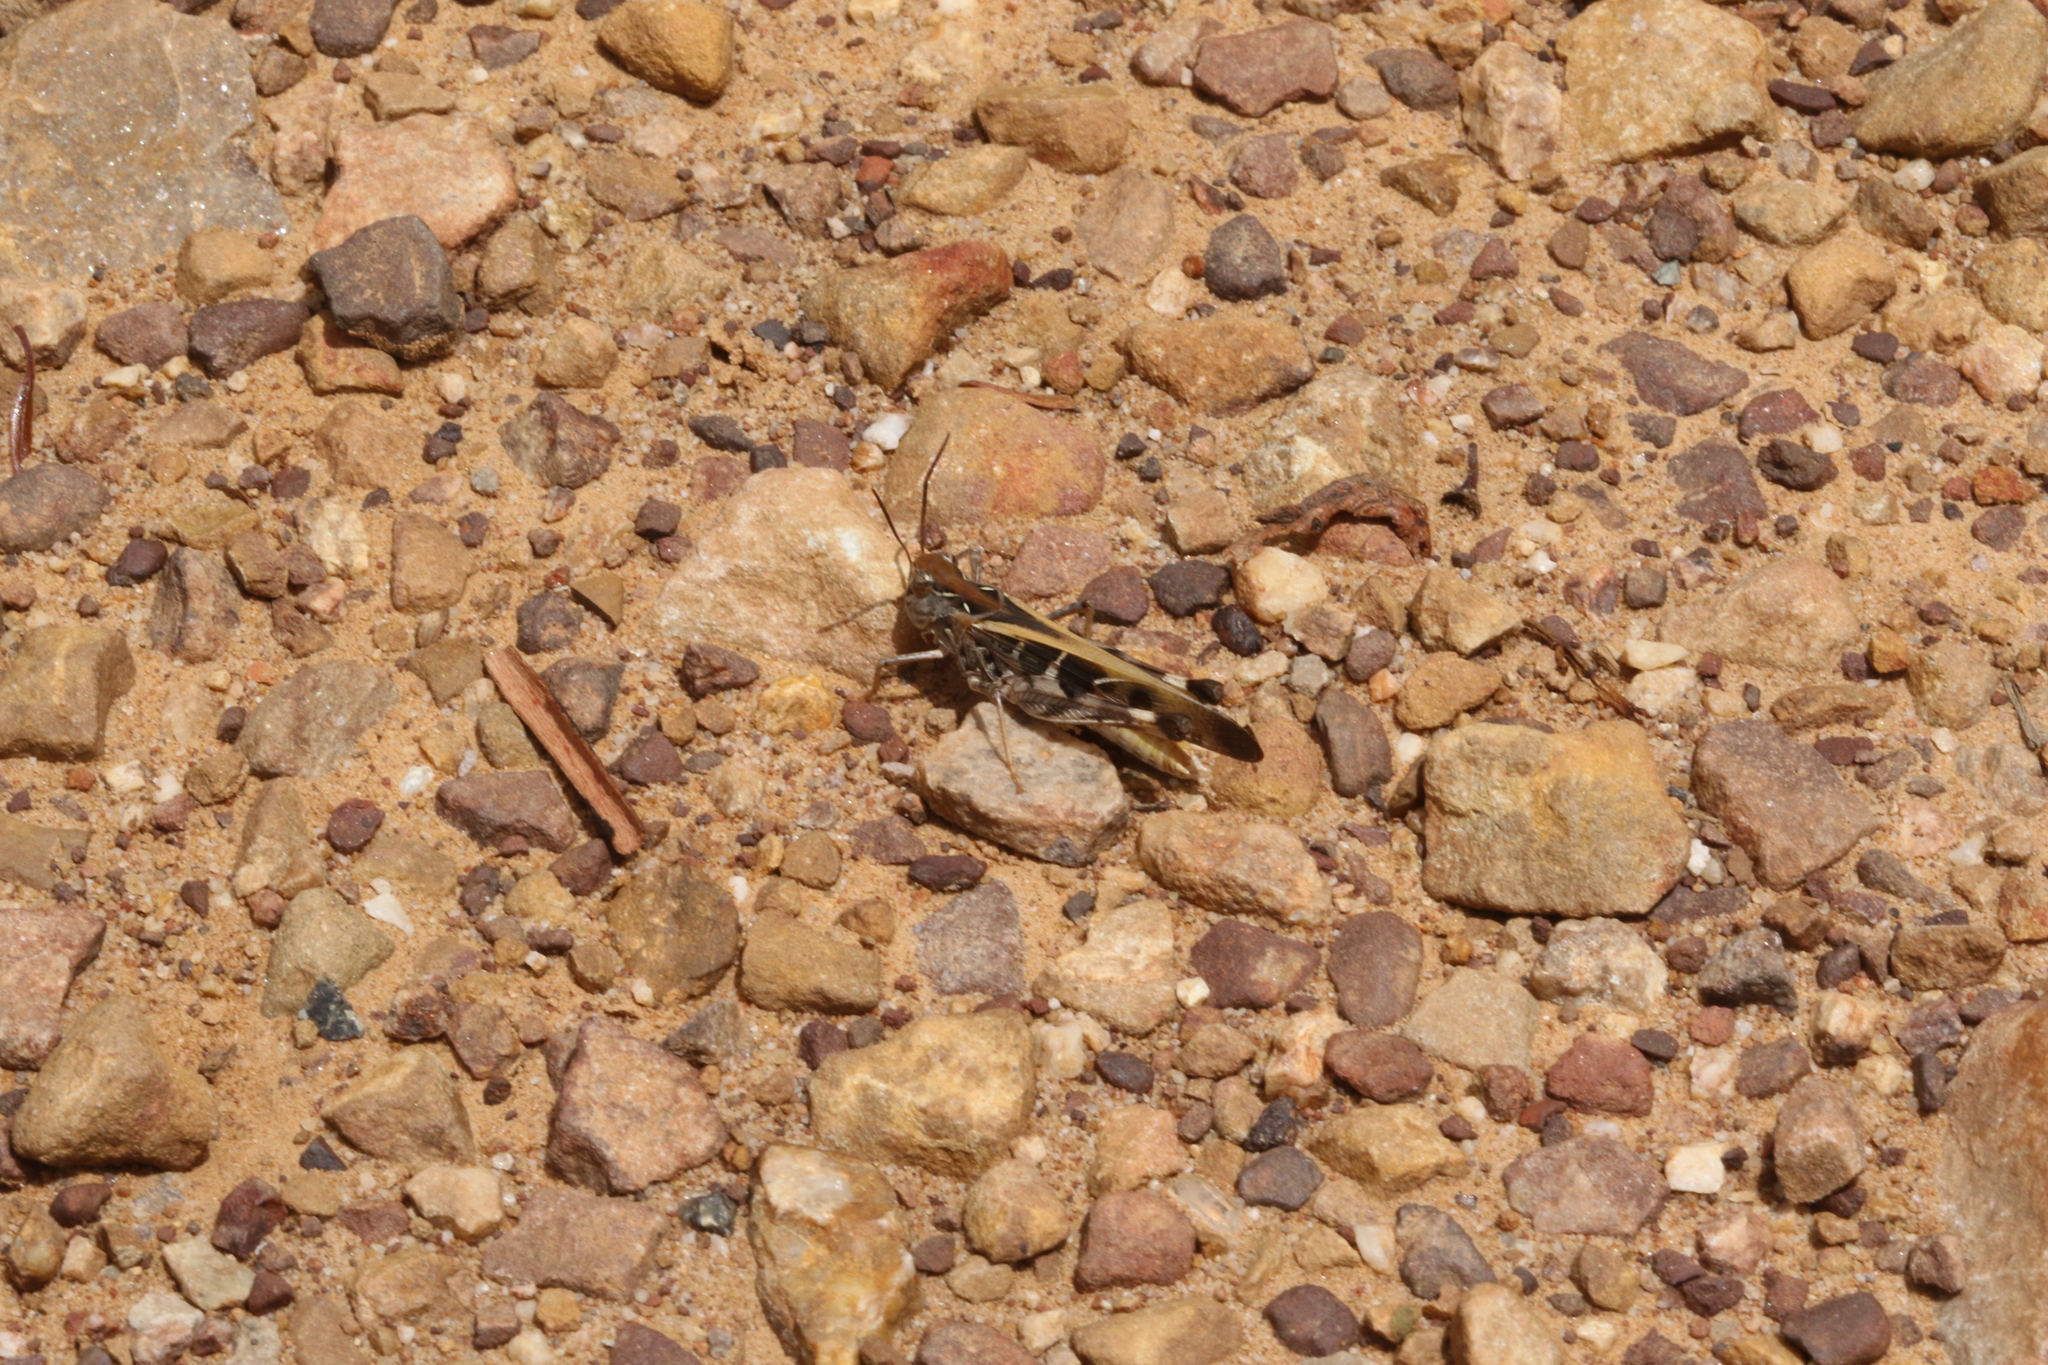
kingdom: Animalia
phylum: Arthropoda
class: Insecta
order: Orthoptera
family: Acrididae
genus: Oedaleus
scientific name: Oedaleus australis
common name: Eastern oedaleus
